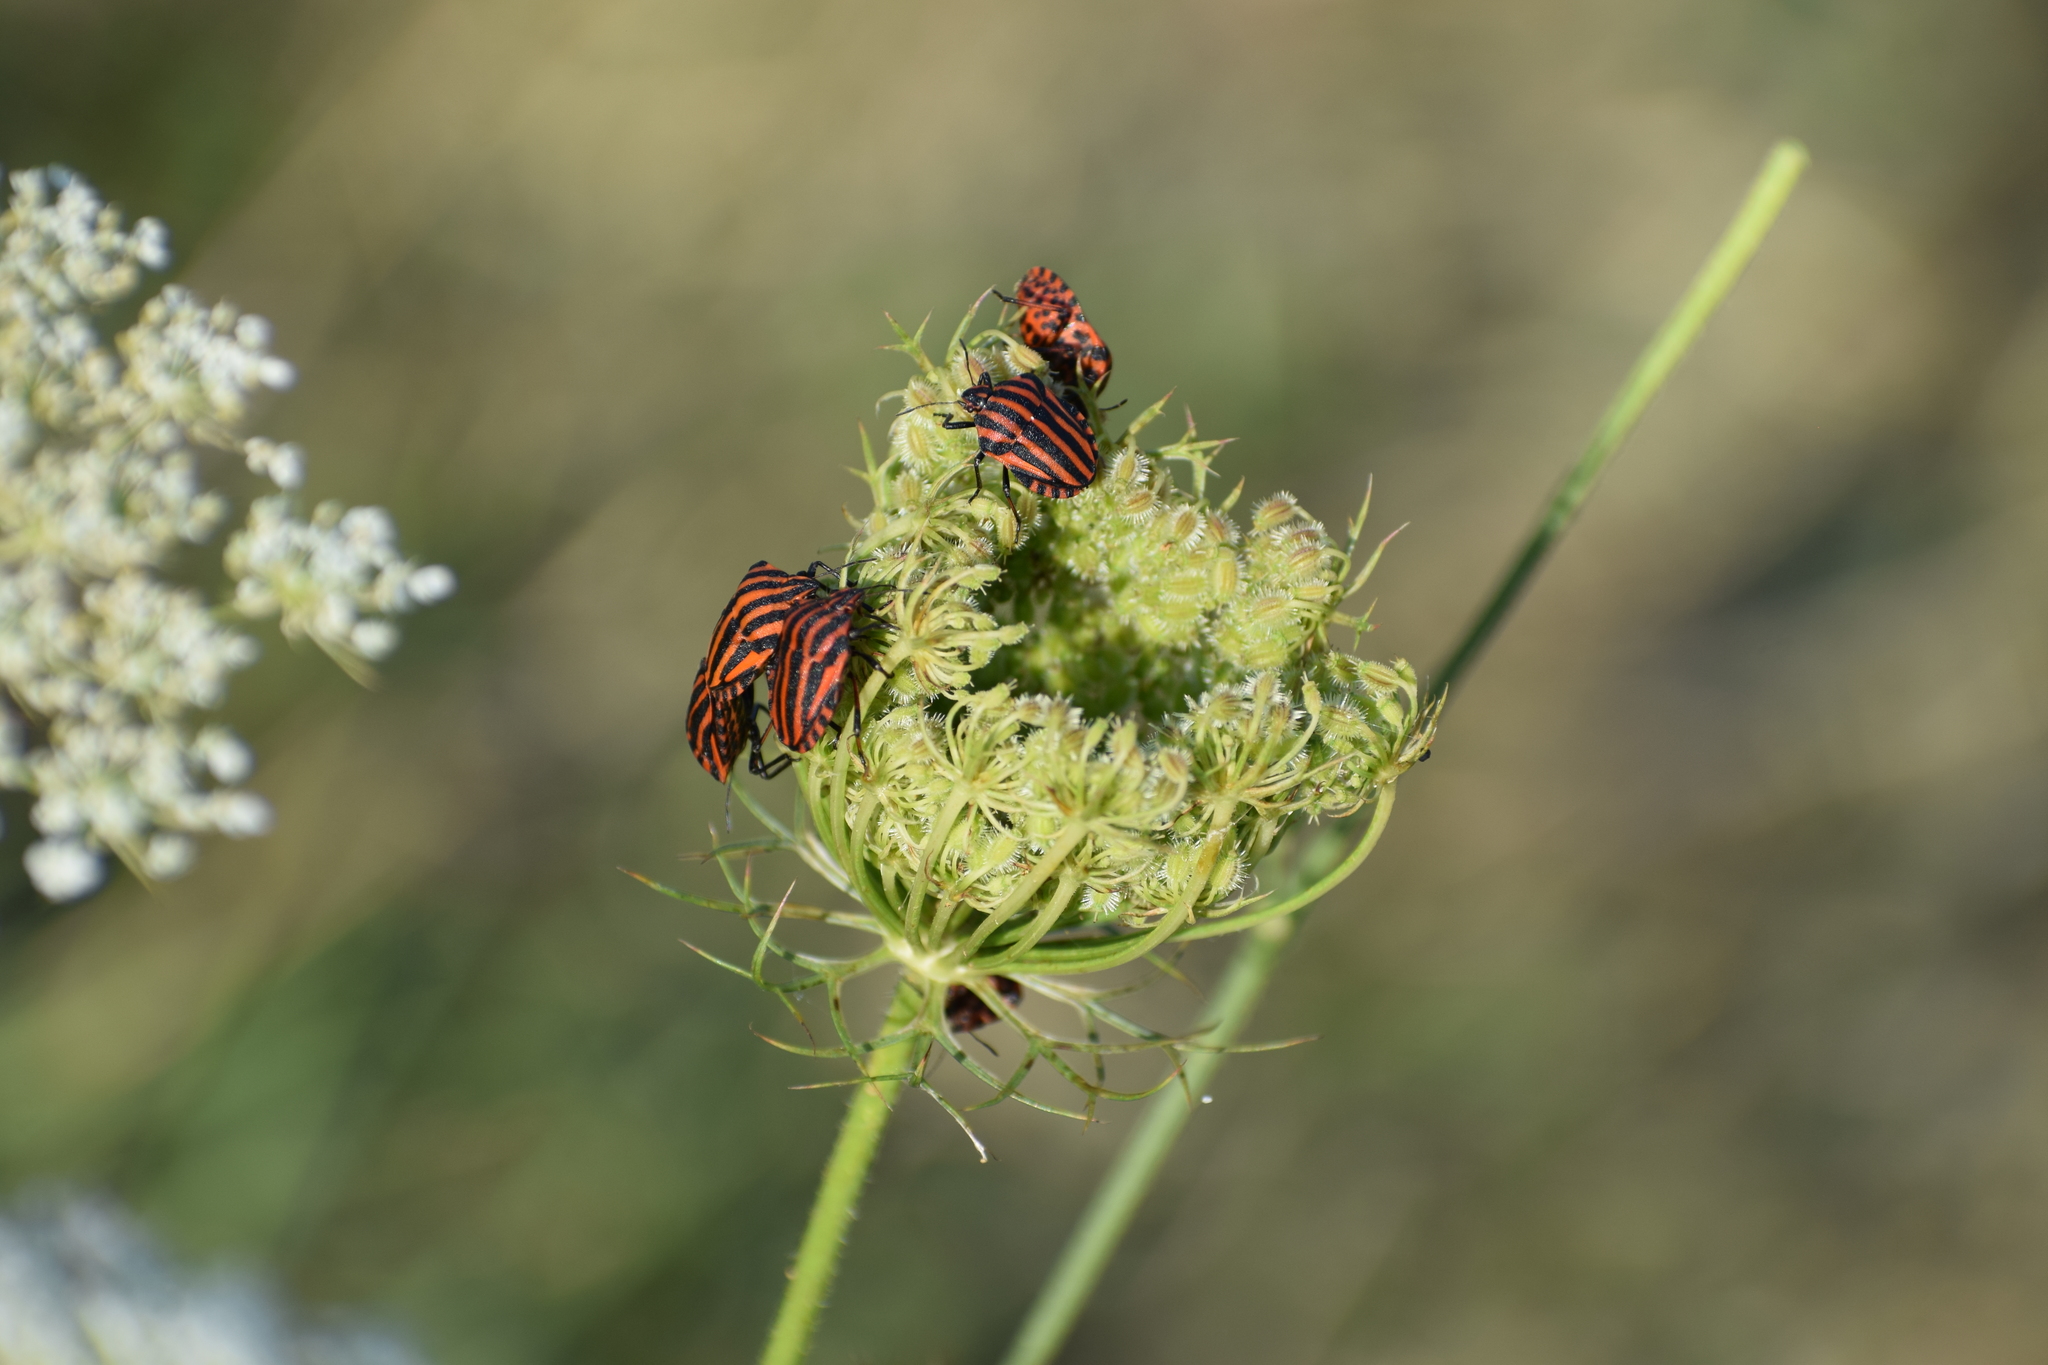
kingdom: Animalia
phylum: Arthropoda
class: Insecta
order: Hemiptera
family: Pentatomidae
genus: Graphosoma
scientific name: Graphosoma italicum
